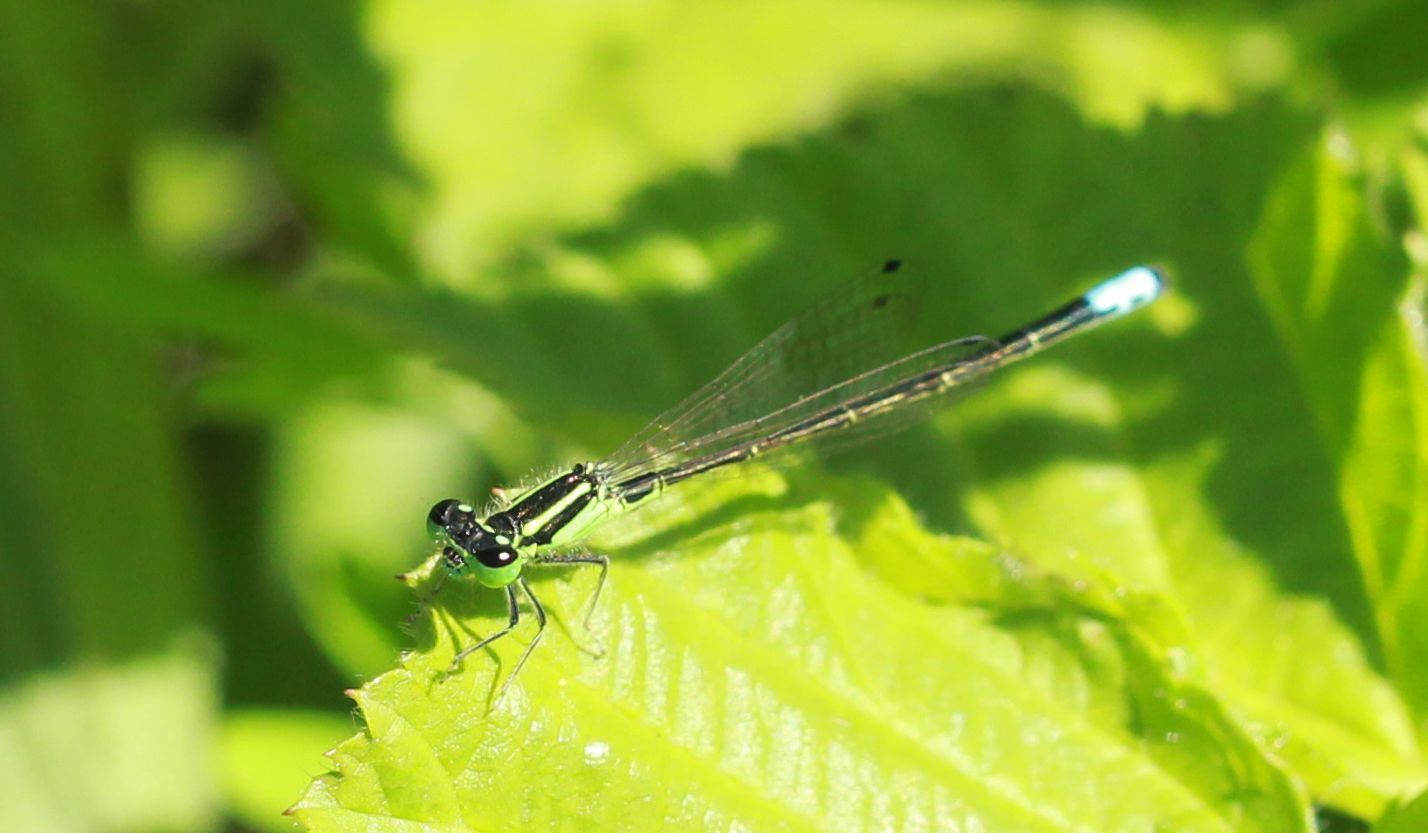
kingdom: Animalia
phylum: Arthropoda
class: Insecta
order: Odonata
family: Coenagrionidae
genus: Ischnura
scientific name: Ischnura verticalis
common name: Eastern forktail
